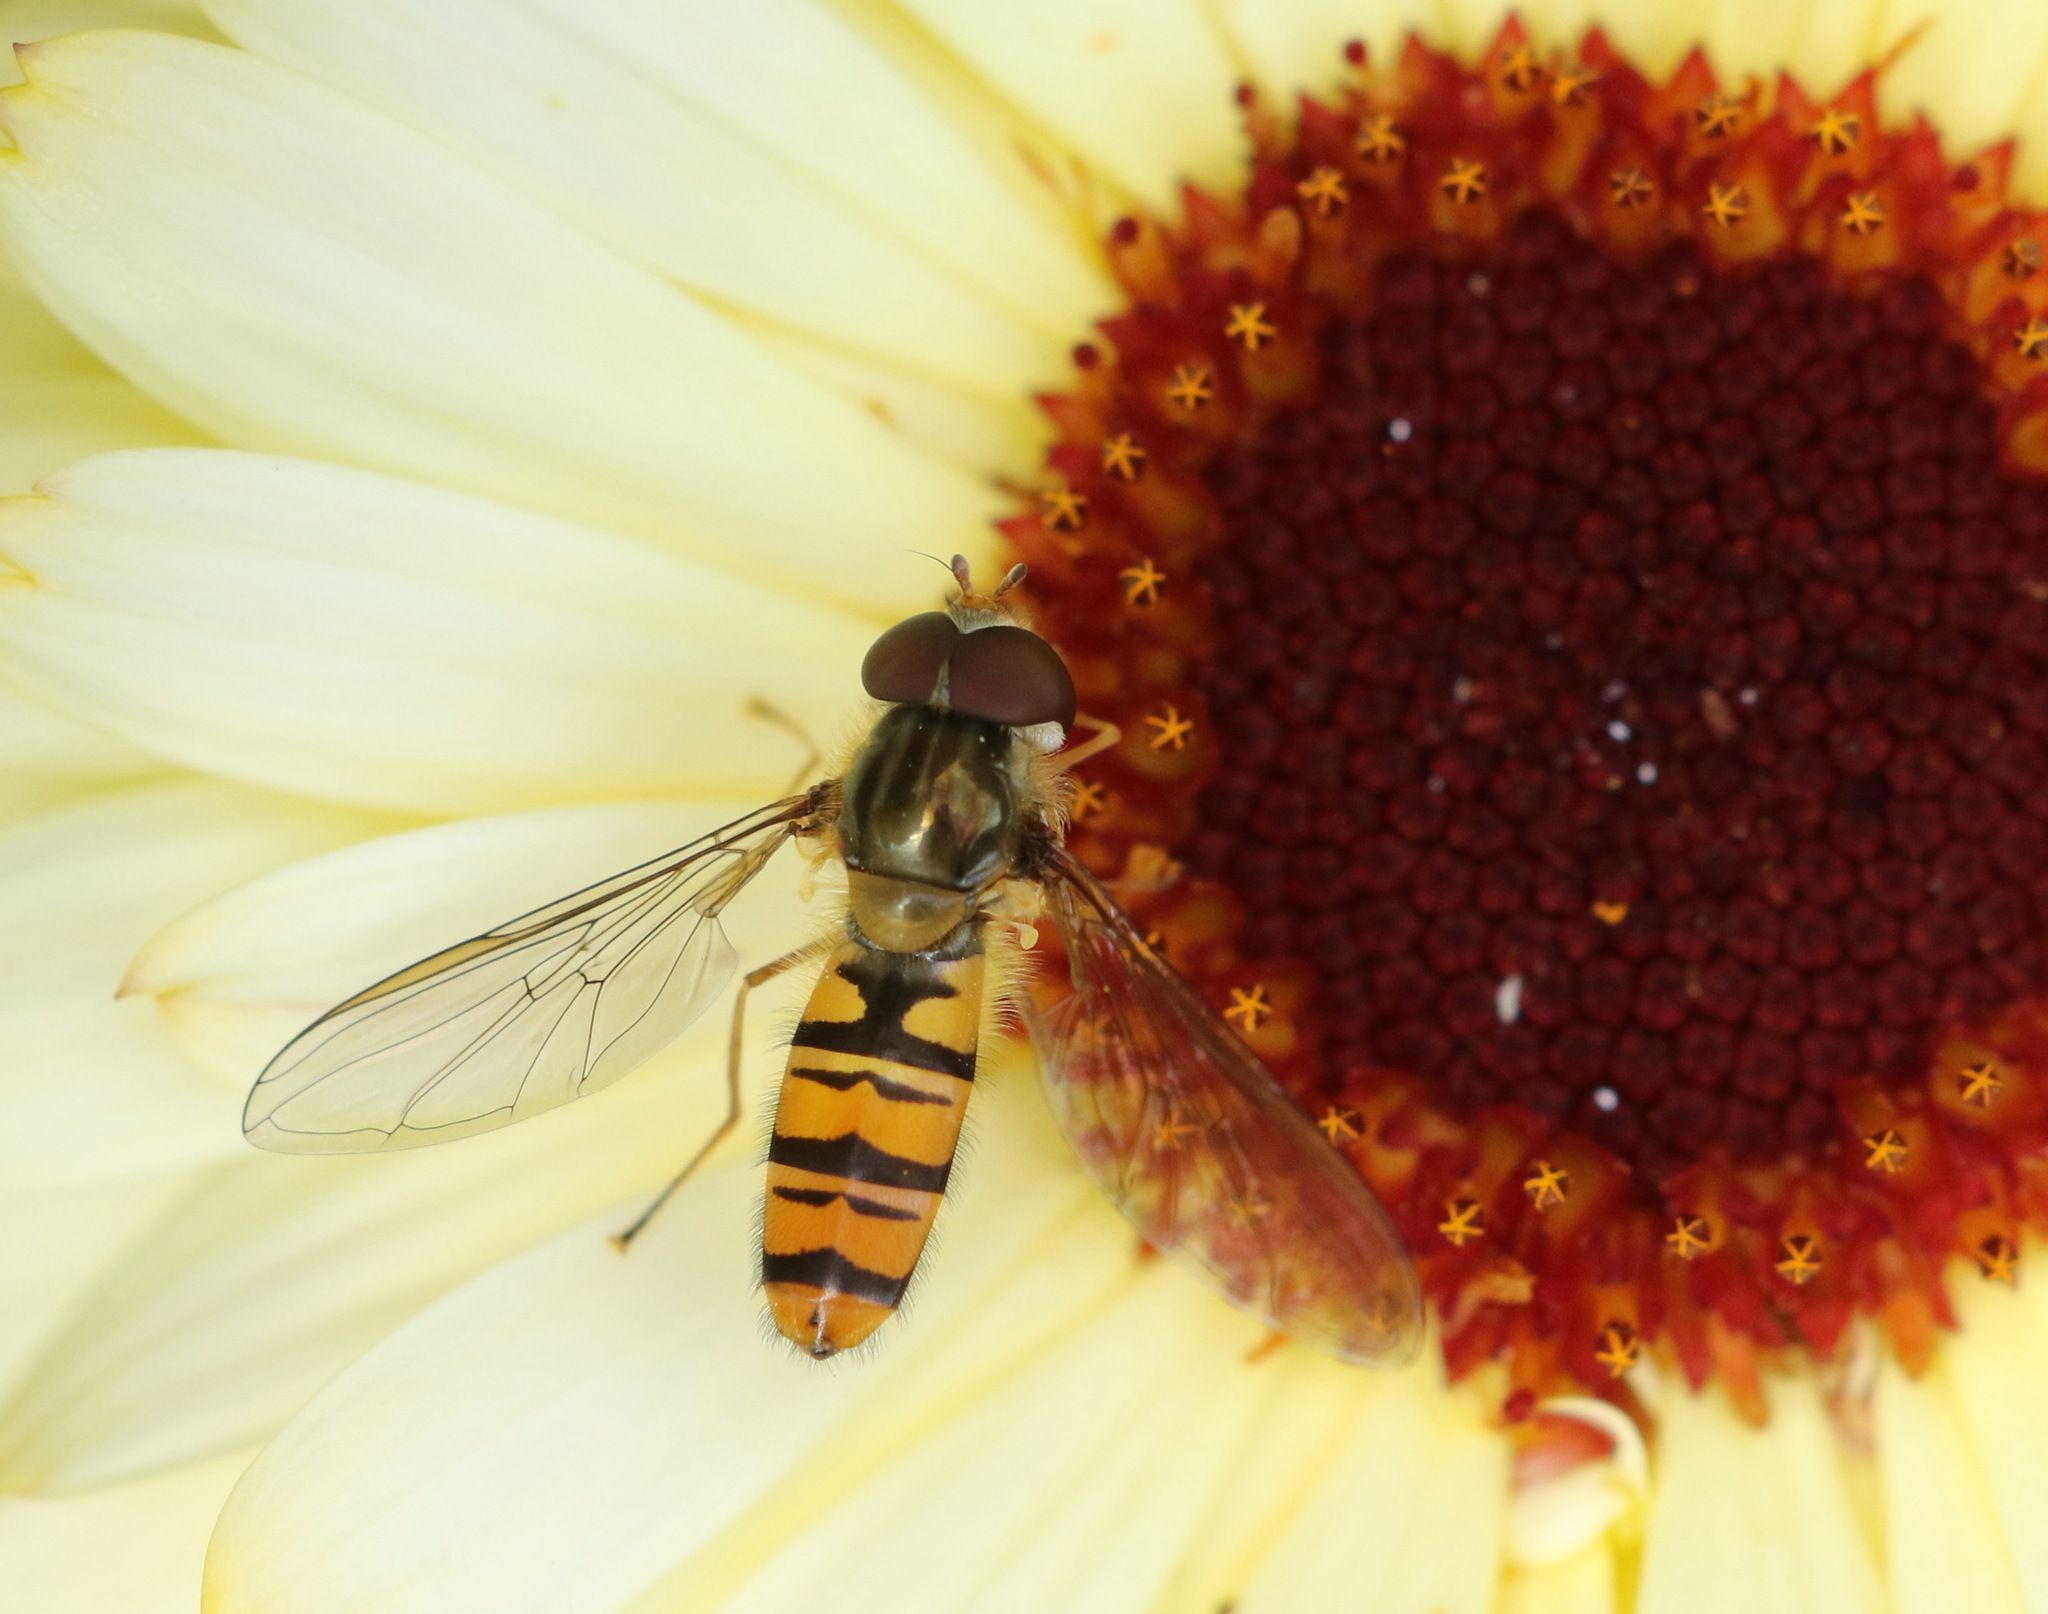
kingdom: Animalia
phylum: Arthropoda
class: Insecta
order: Diptera
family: Syrphidae
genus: Episyrphus
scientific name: Episyrphus balteatus
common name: Marmalade hoverfly
